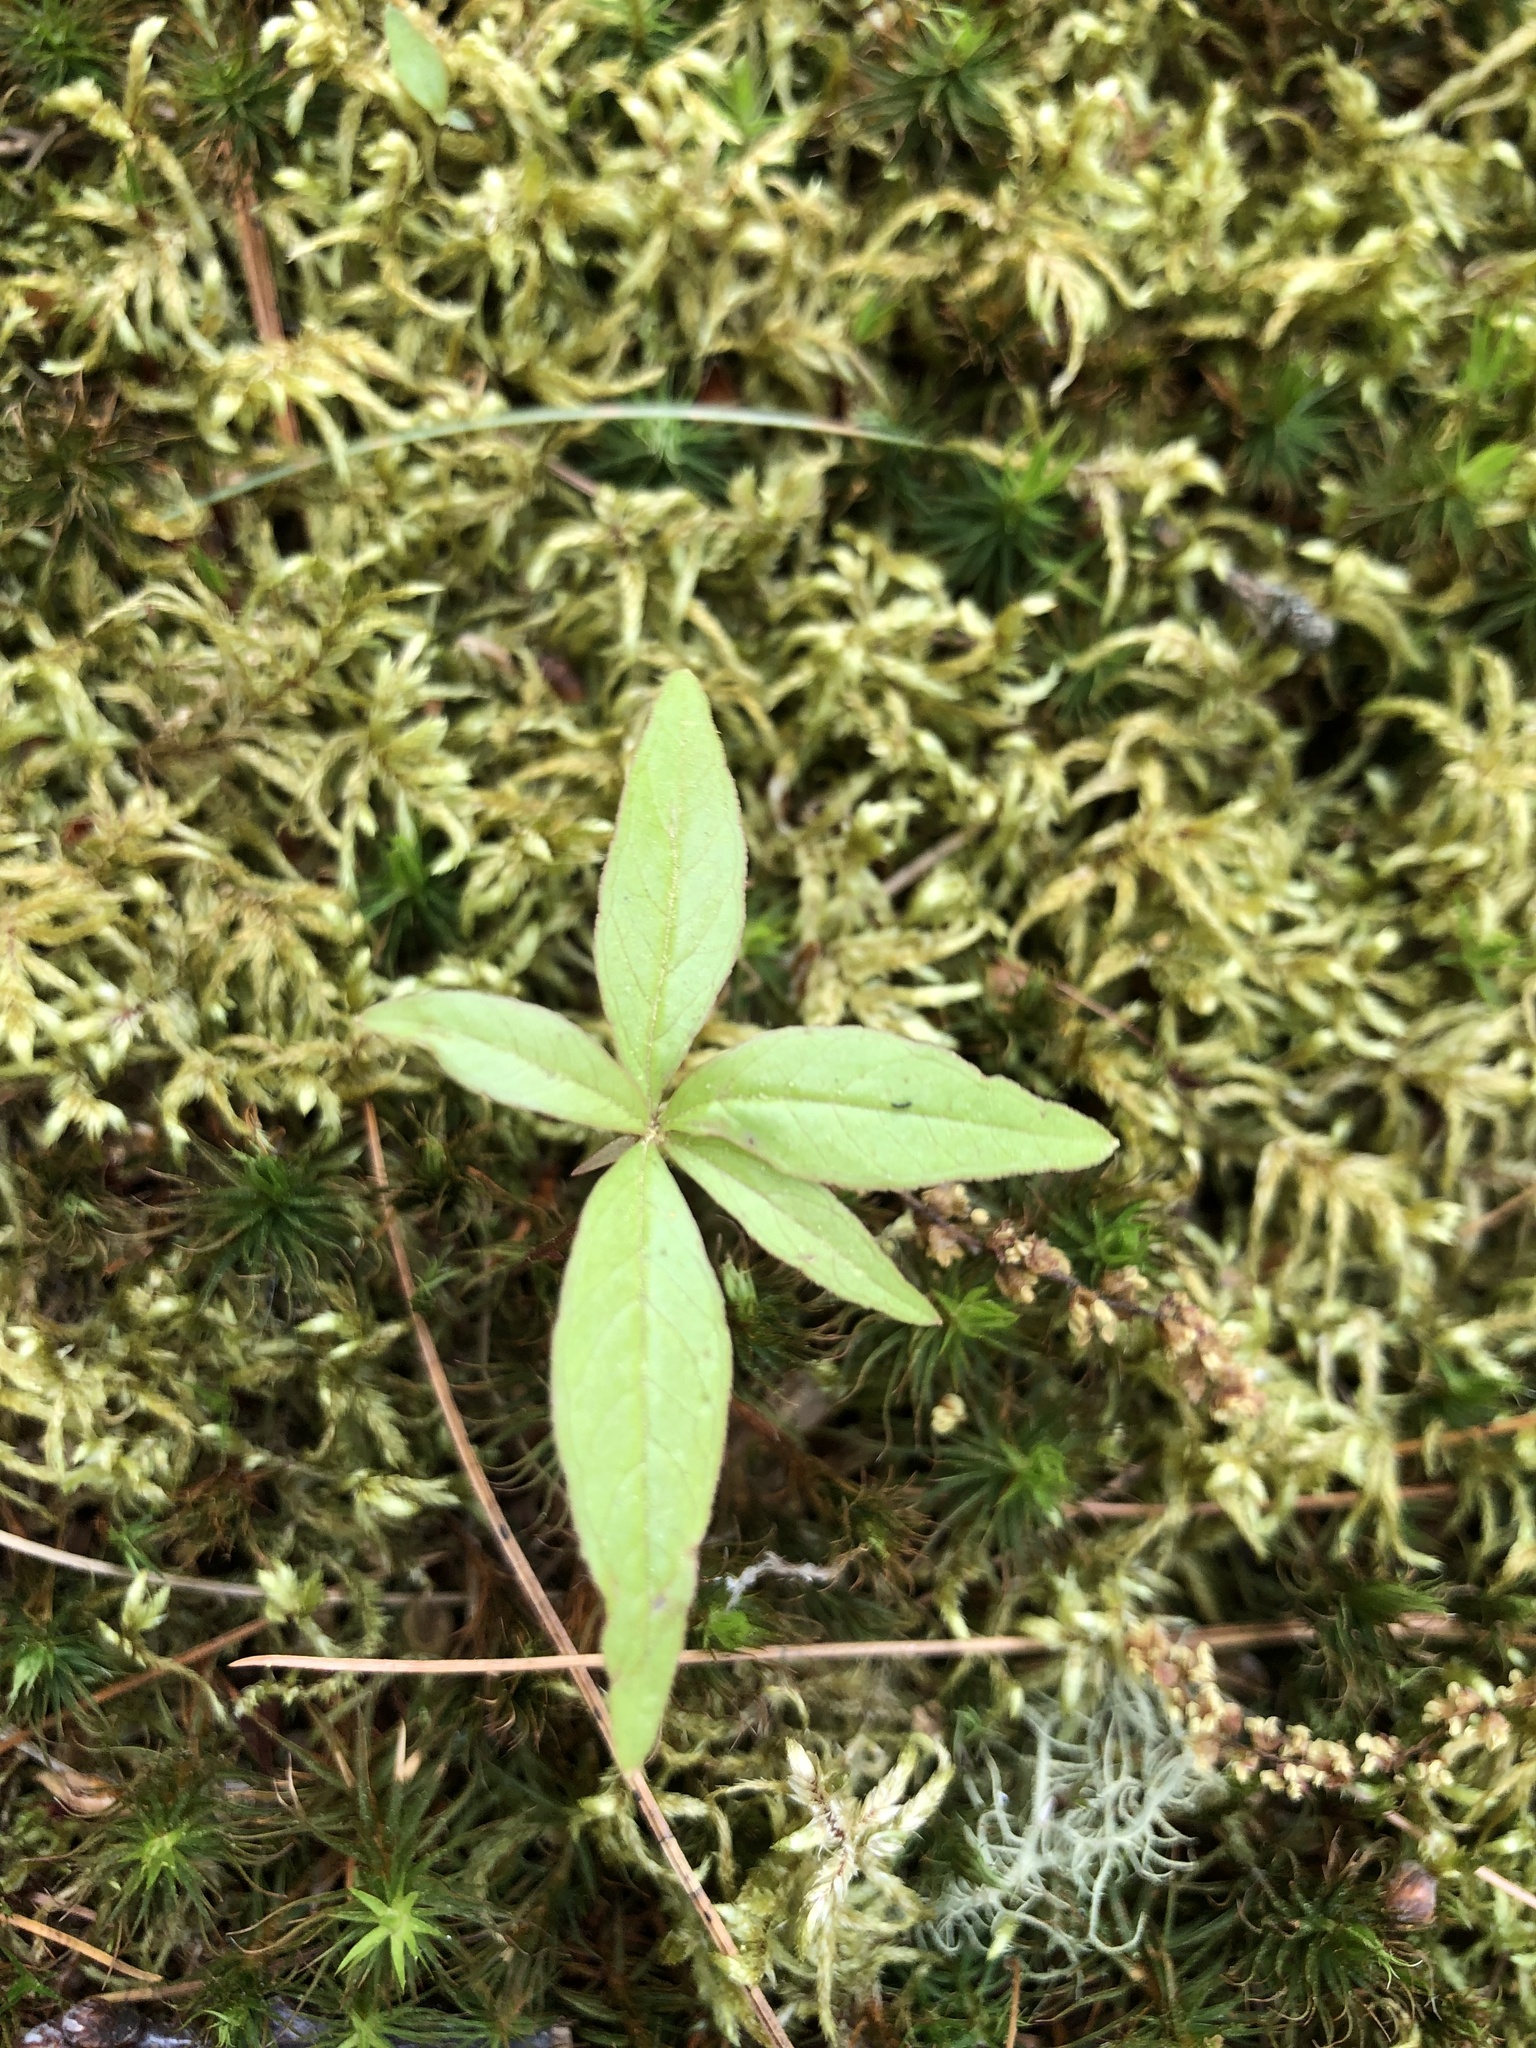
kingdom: Plantae
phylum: Tracheophyta
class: Magnoliopsida
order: Ericales
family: Primulaceae
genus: Lysimachia
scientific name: Lysimachia borealis
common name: American starflower
